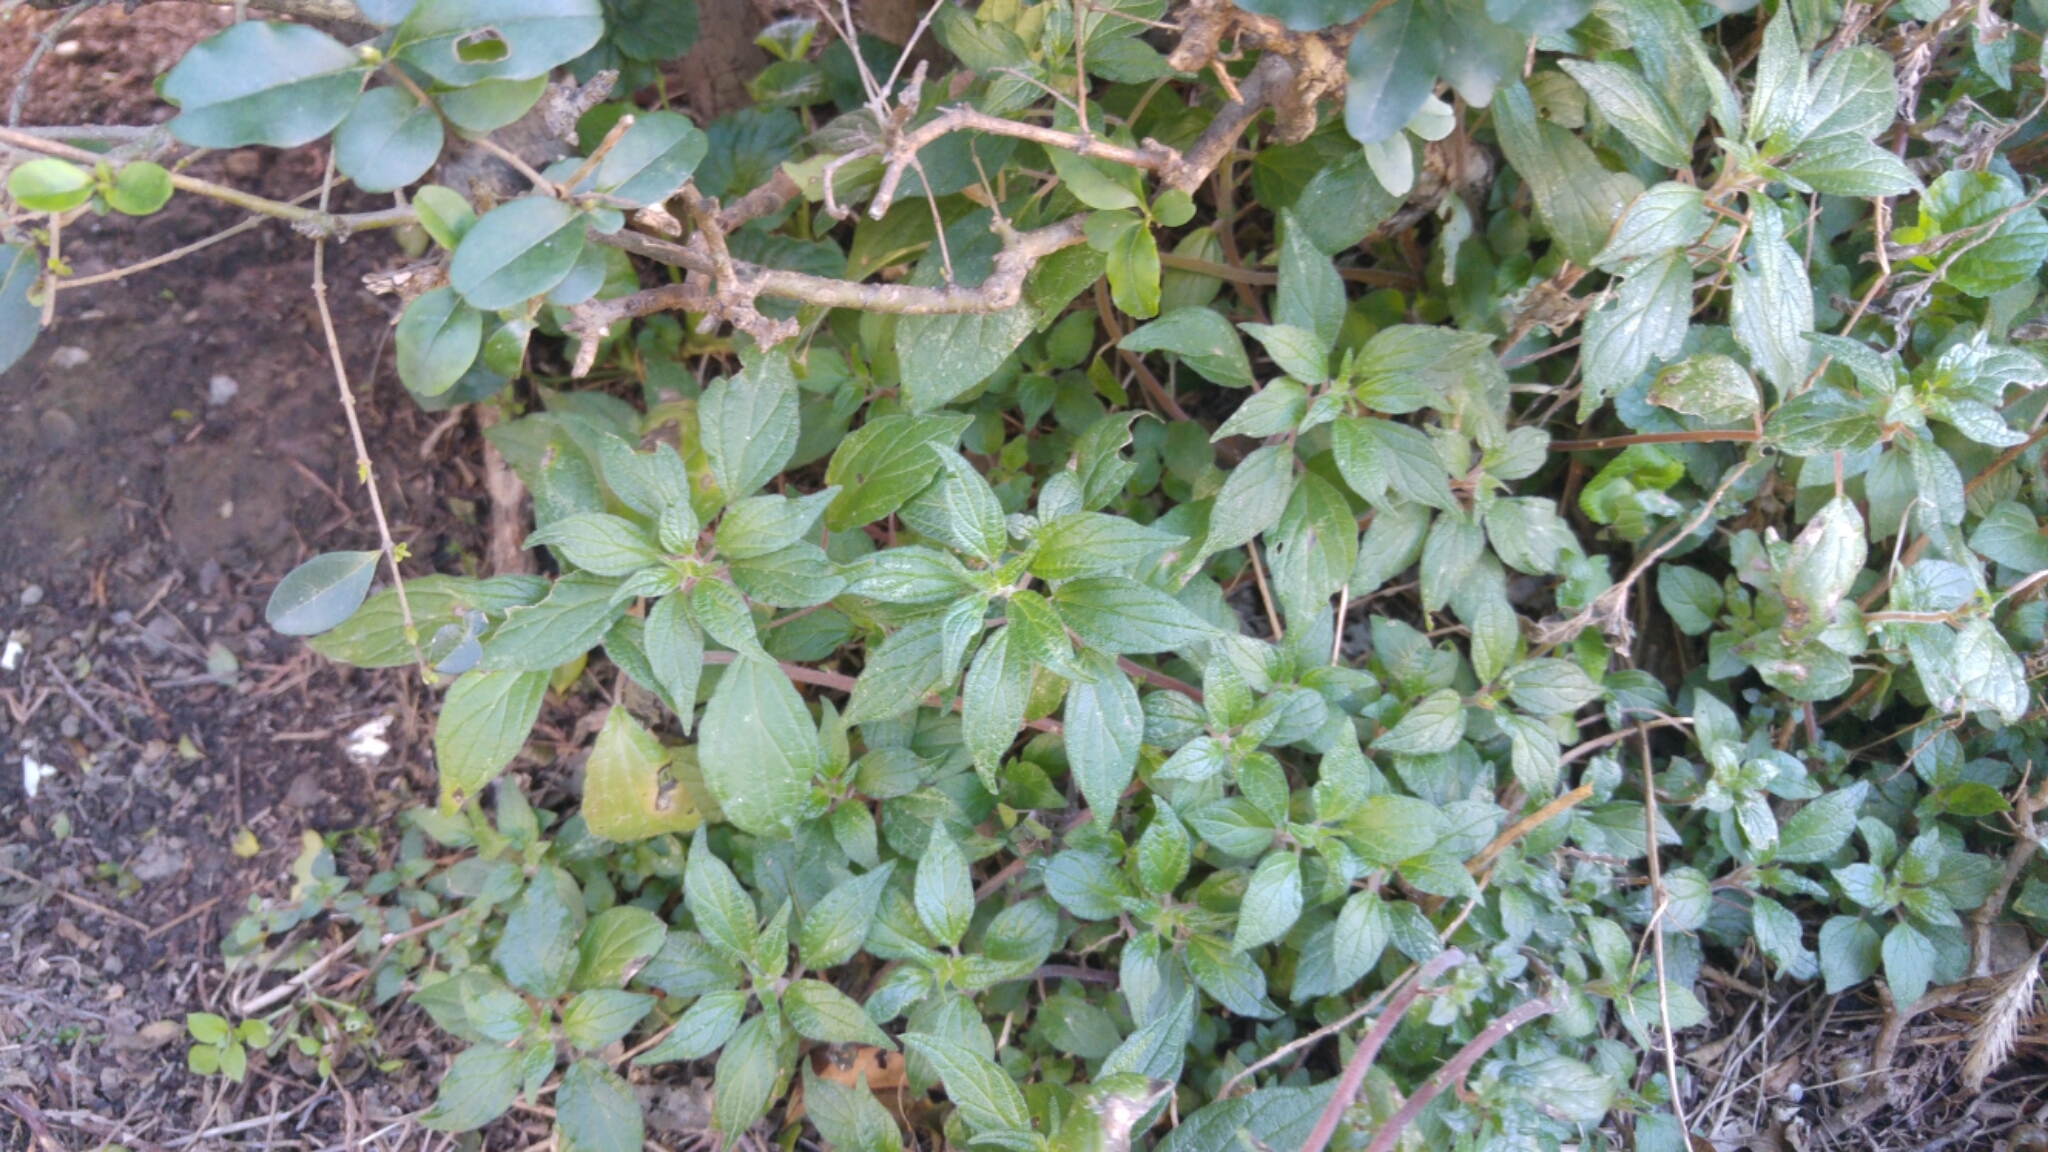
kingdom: Plantae
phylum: Tracheophyta
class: Magnoliopsida
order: Rosales
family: Urticaceae
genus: Parietaria
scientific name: Parietaria officinalis
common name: Eastern pellitory-of-the-wall
